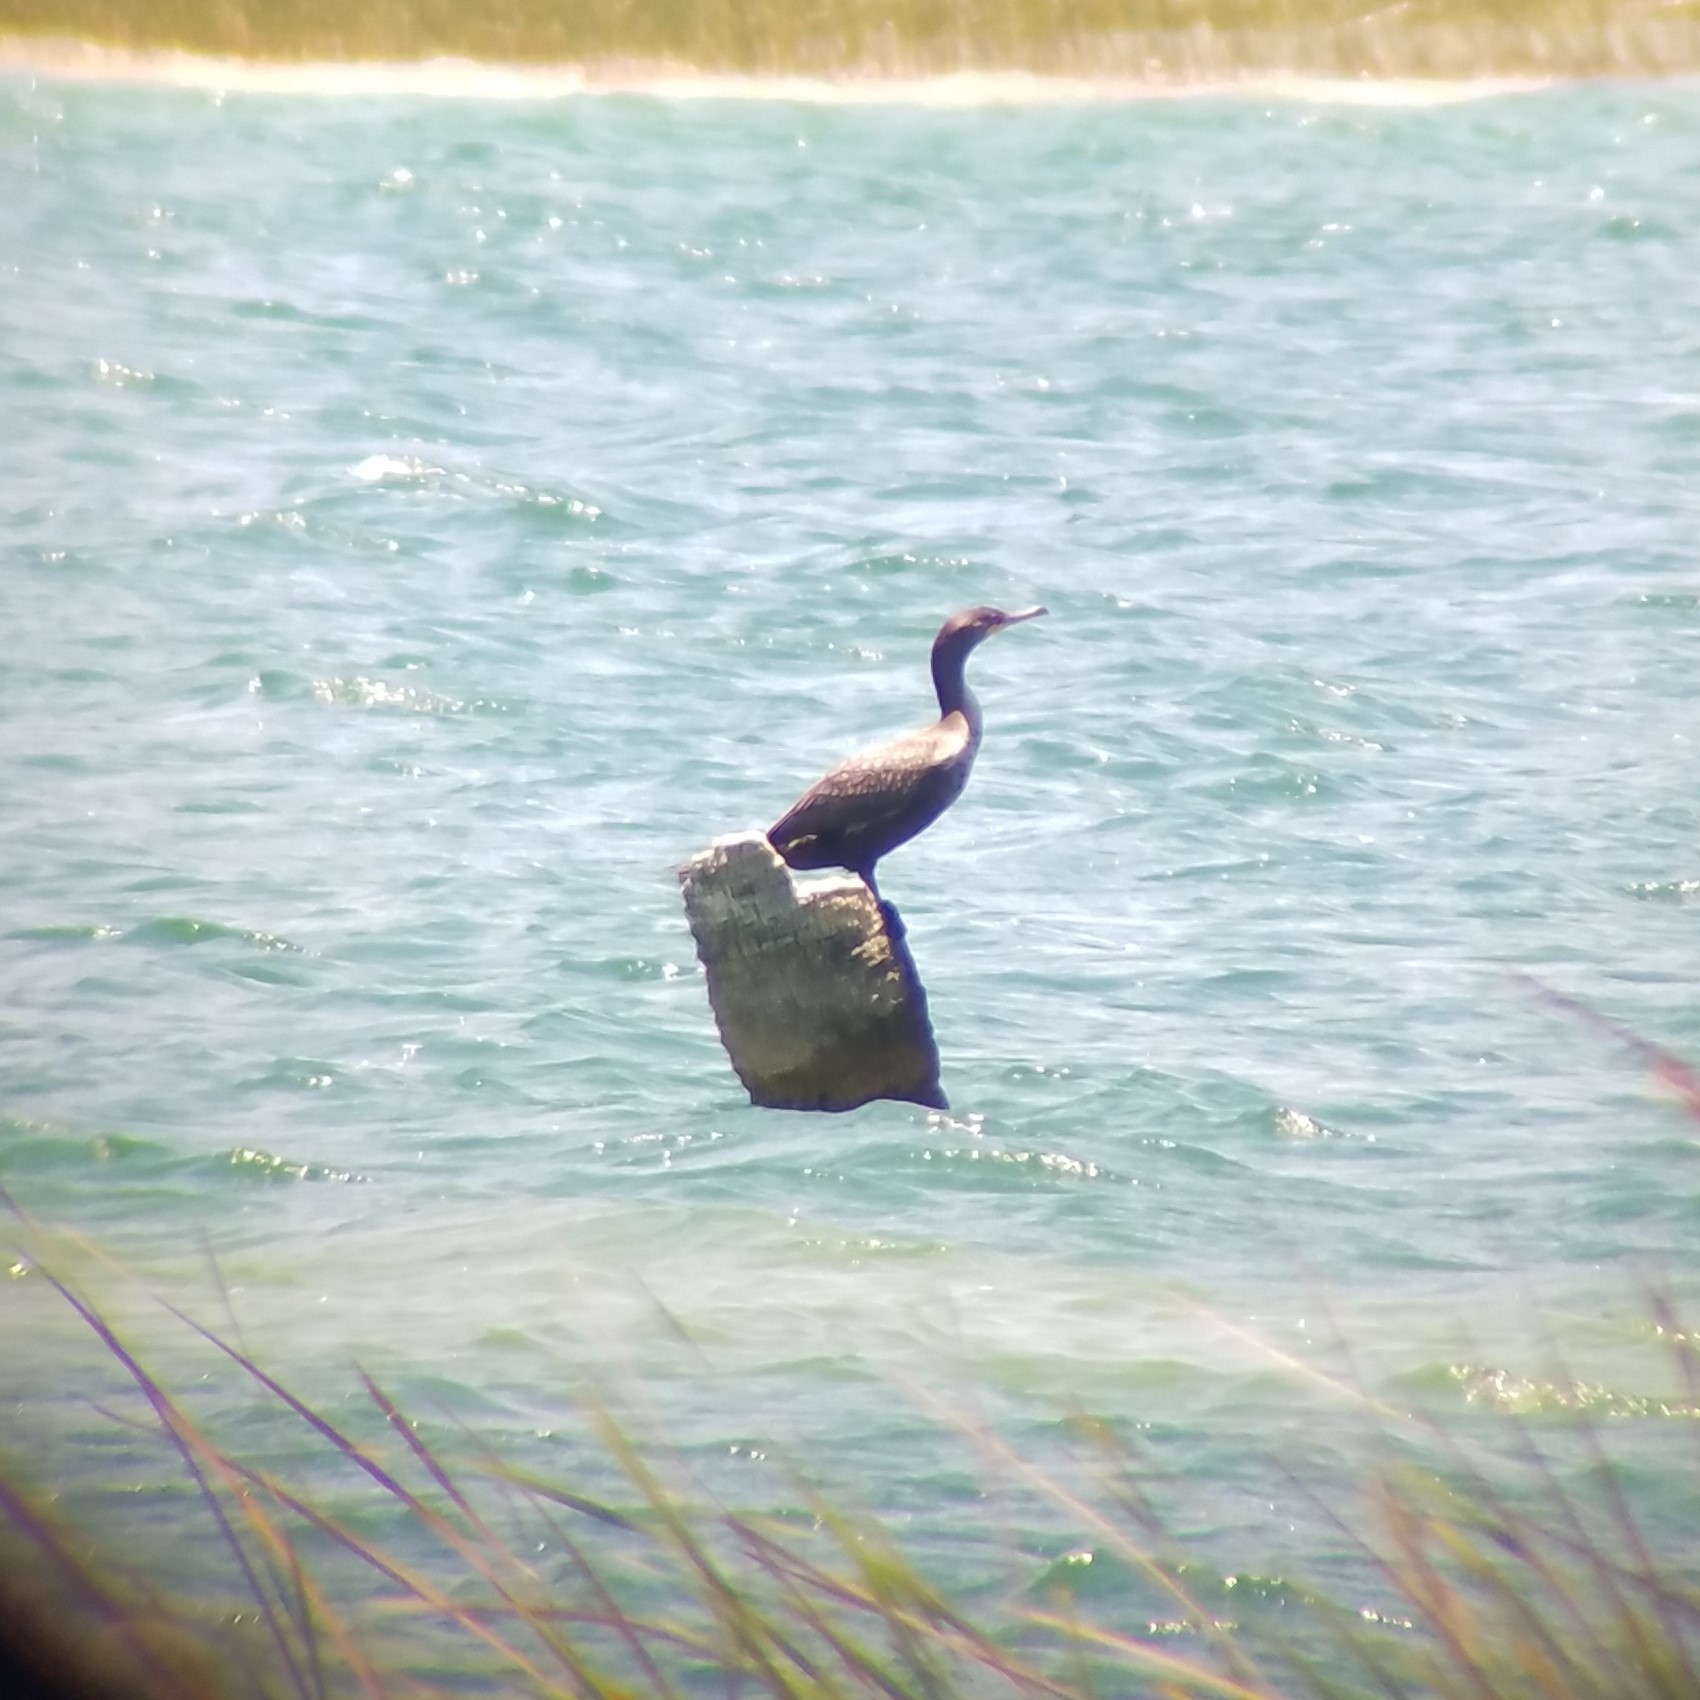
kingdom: Animalia
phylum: Chordata
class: Aves
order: Suliformes
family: Phalacrocoracidae
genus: Phalacrocorax
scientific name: Phalacrocorax auritus
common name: Double-crested cormorant
